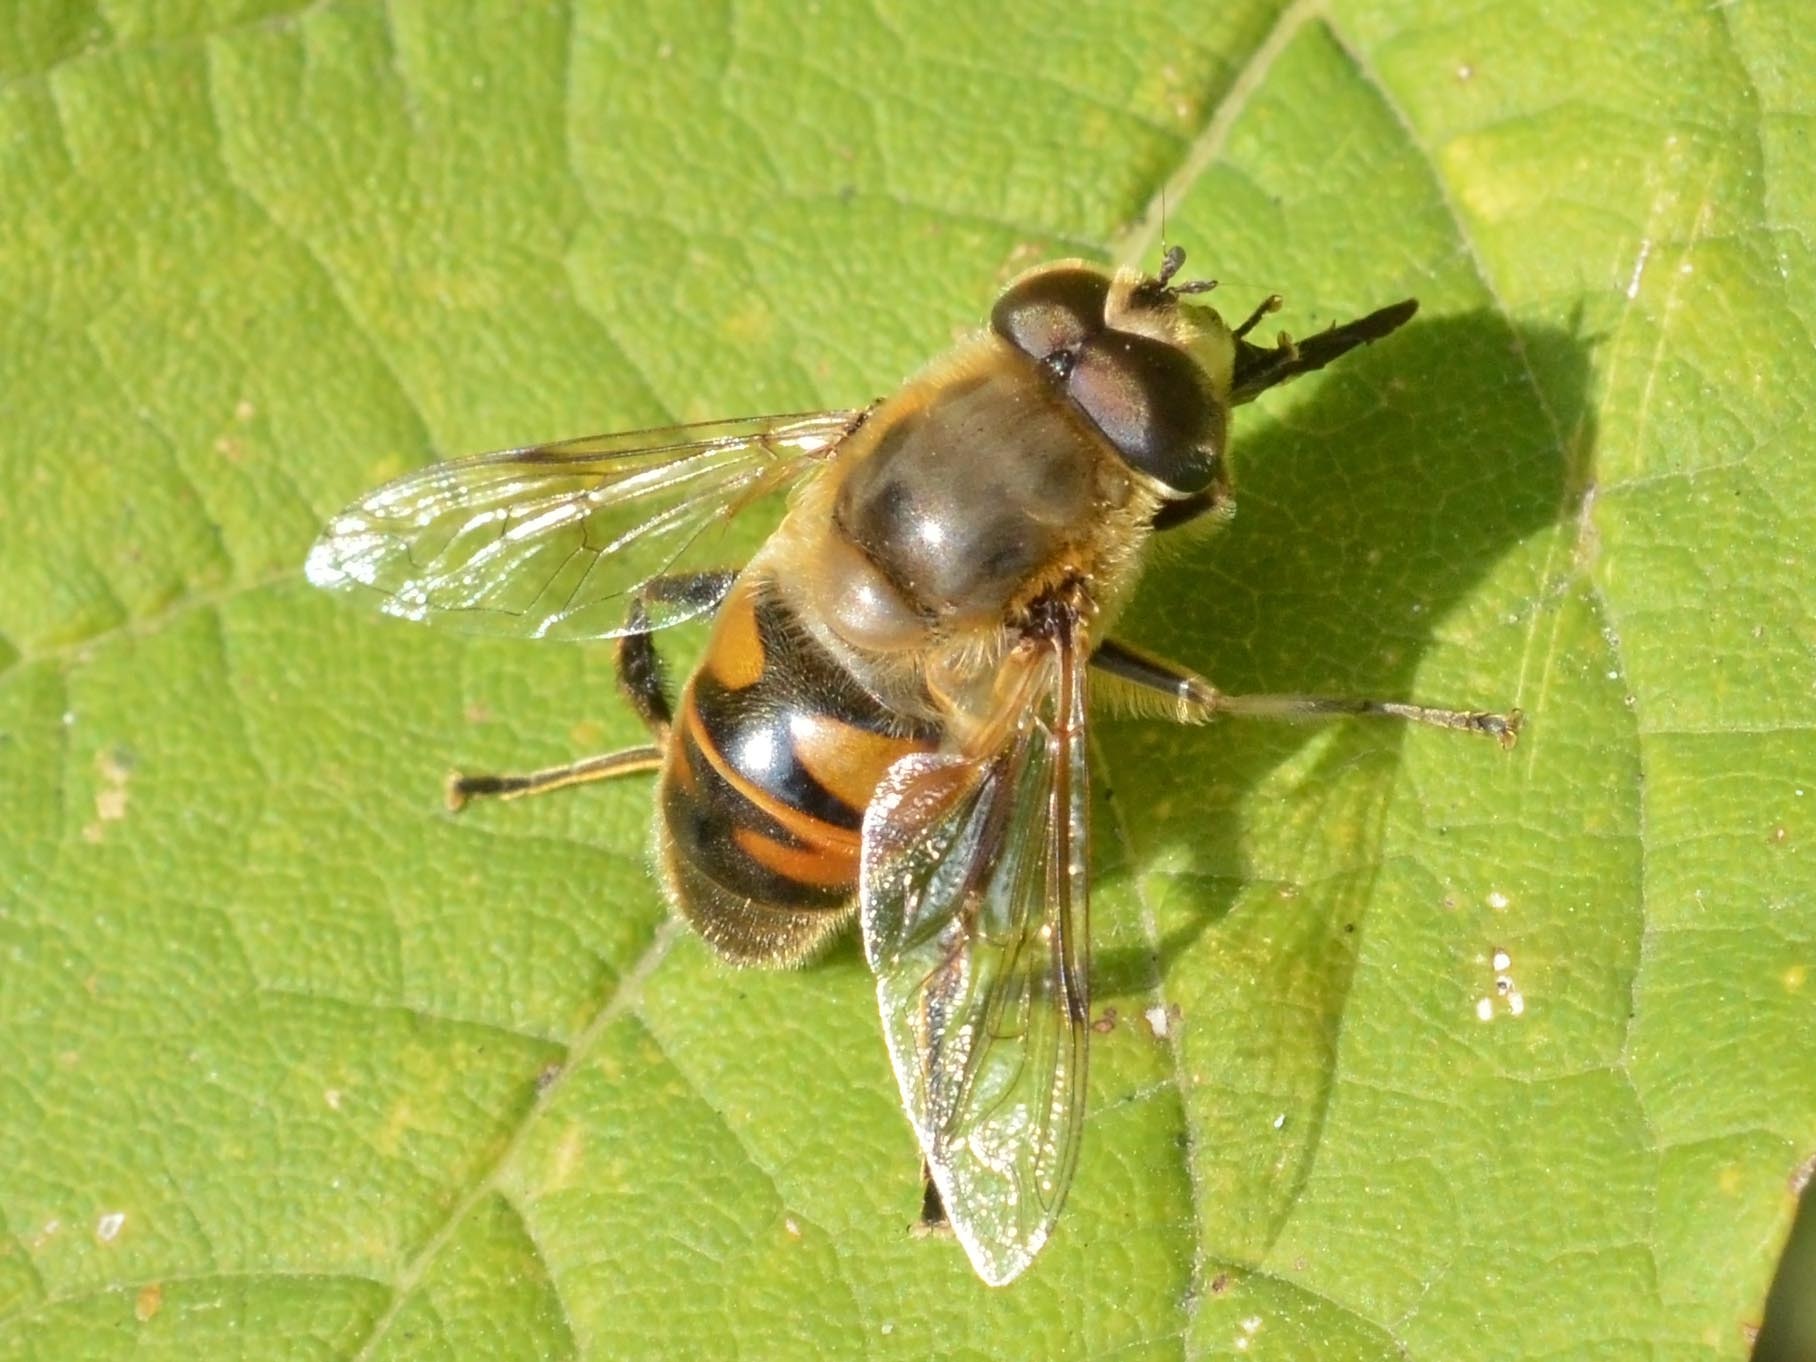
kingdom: Animalia
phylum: Arthropoda
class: Insecta
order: Diptera
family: Syrphidae
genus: Eristalis
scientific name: Eristalis tenax
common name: Drone fly
